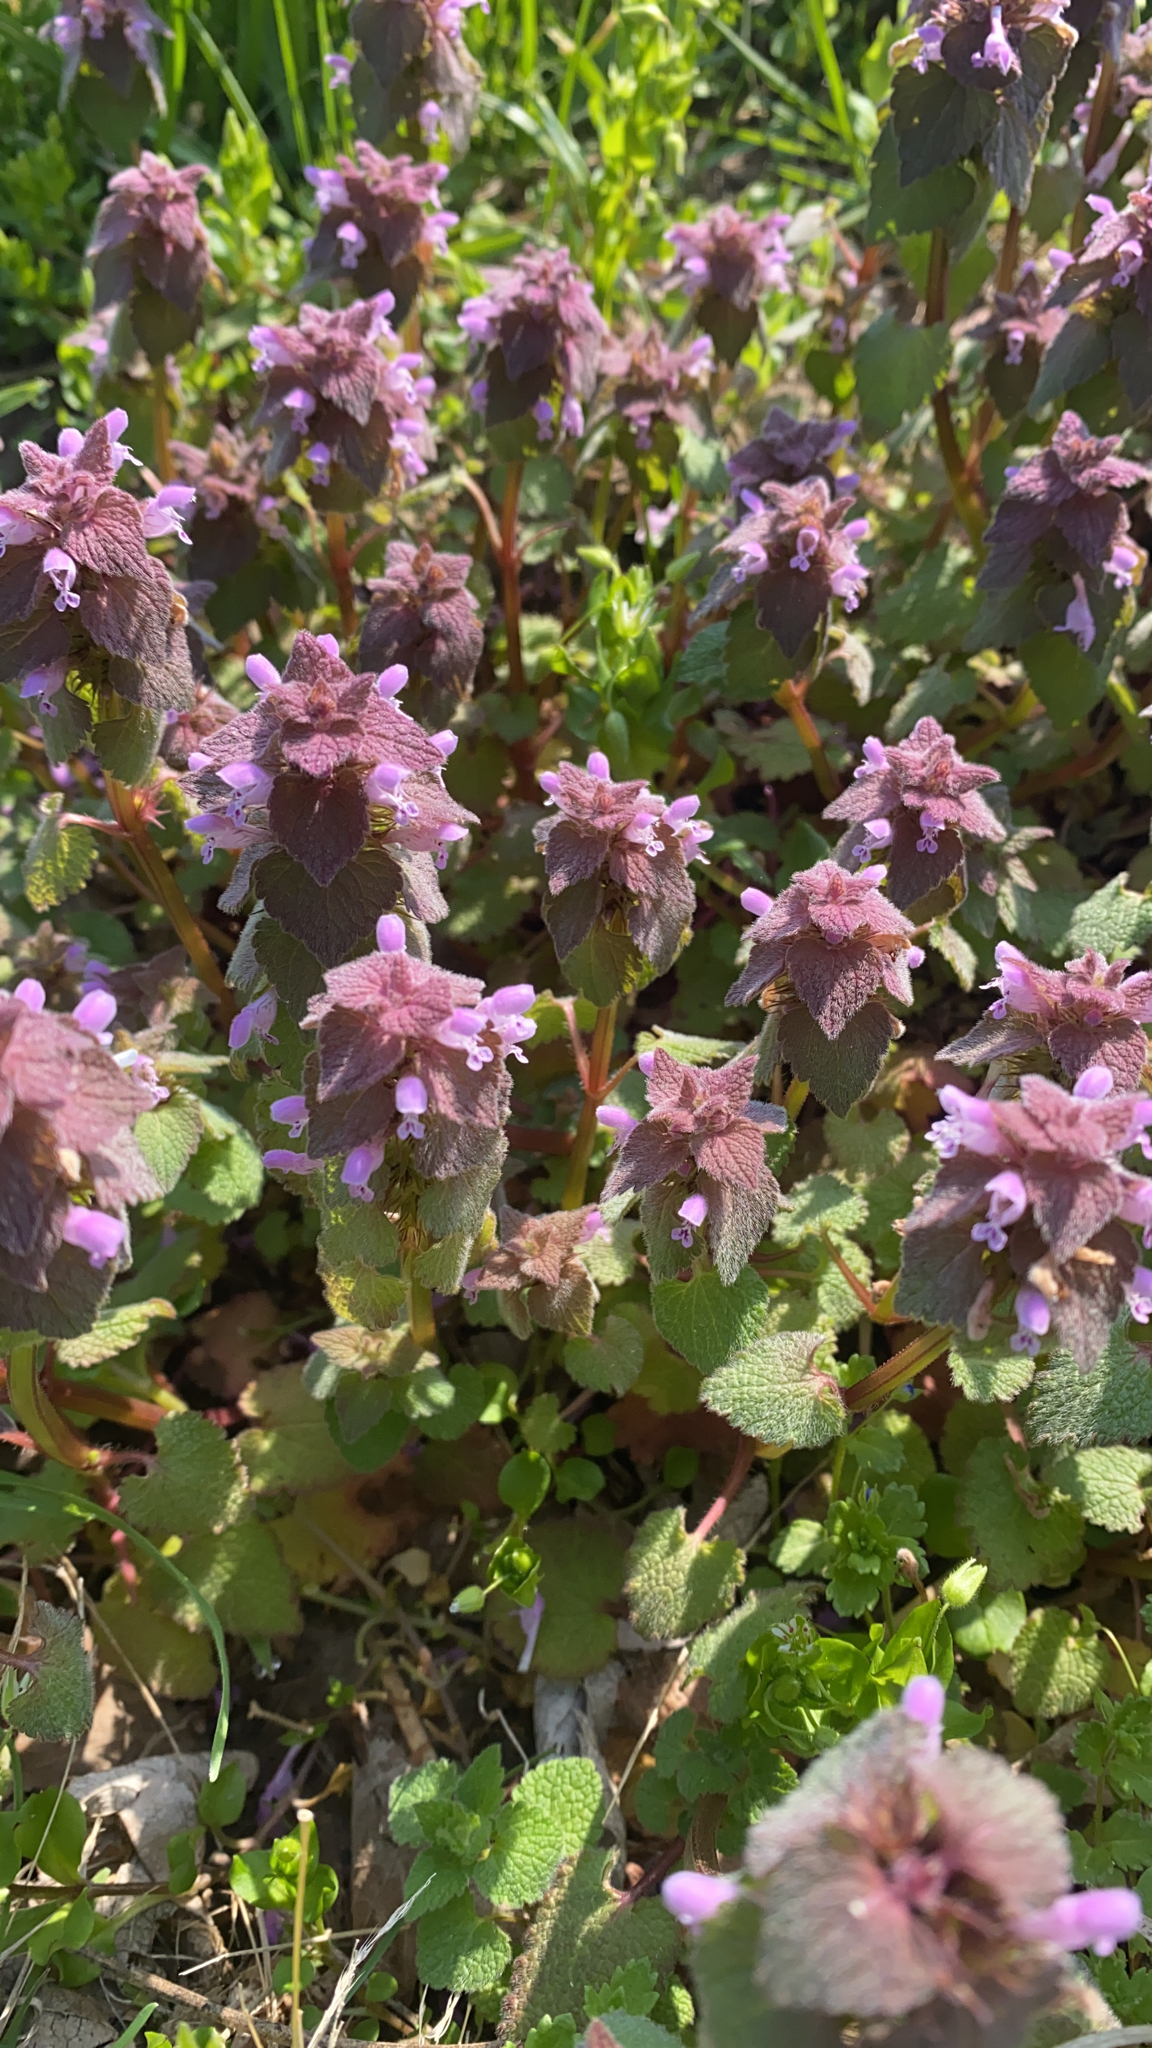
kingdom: Plantae
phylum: Tracheophyta
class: Magnoliopsida
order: Lamiales
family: Lamiaceae
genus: Lamium
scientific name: Lamium purpureum
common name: Red dead-nettle
